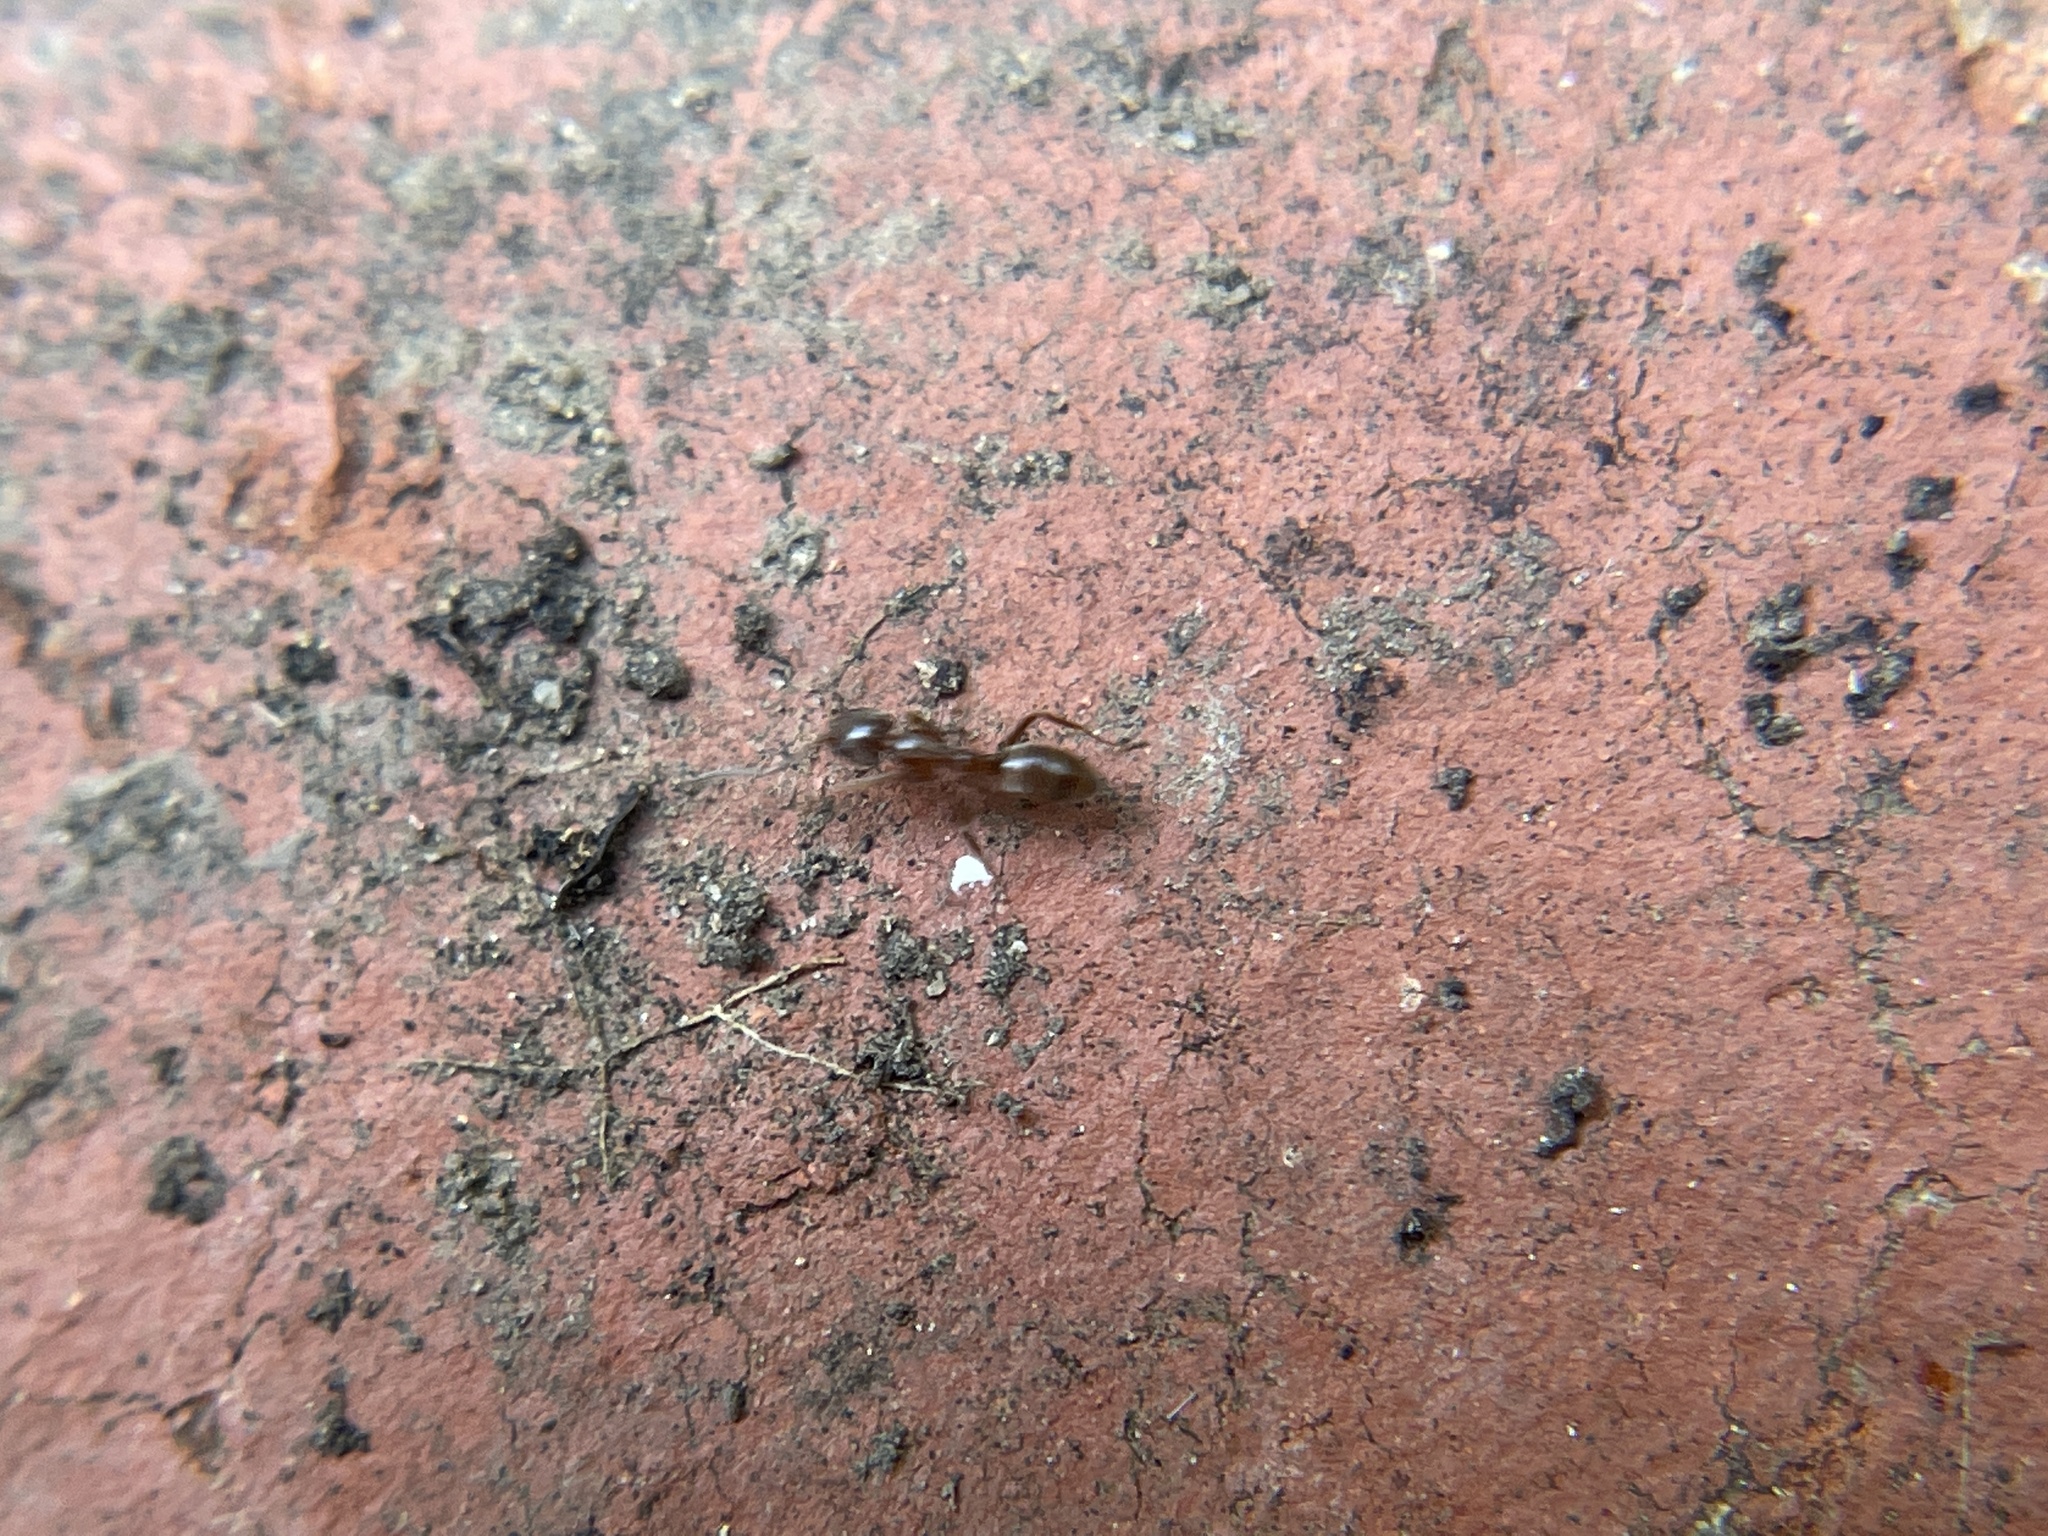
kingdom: Animalia
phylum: Arthropoda
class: Insecta
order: Hymenoptera
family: Formicidae
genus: Linepithema
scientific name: Linepithema humile
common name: Argentine ant
